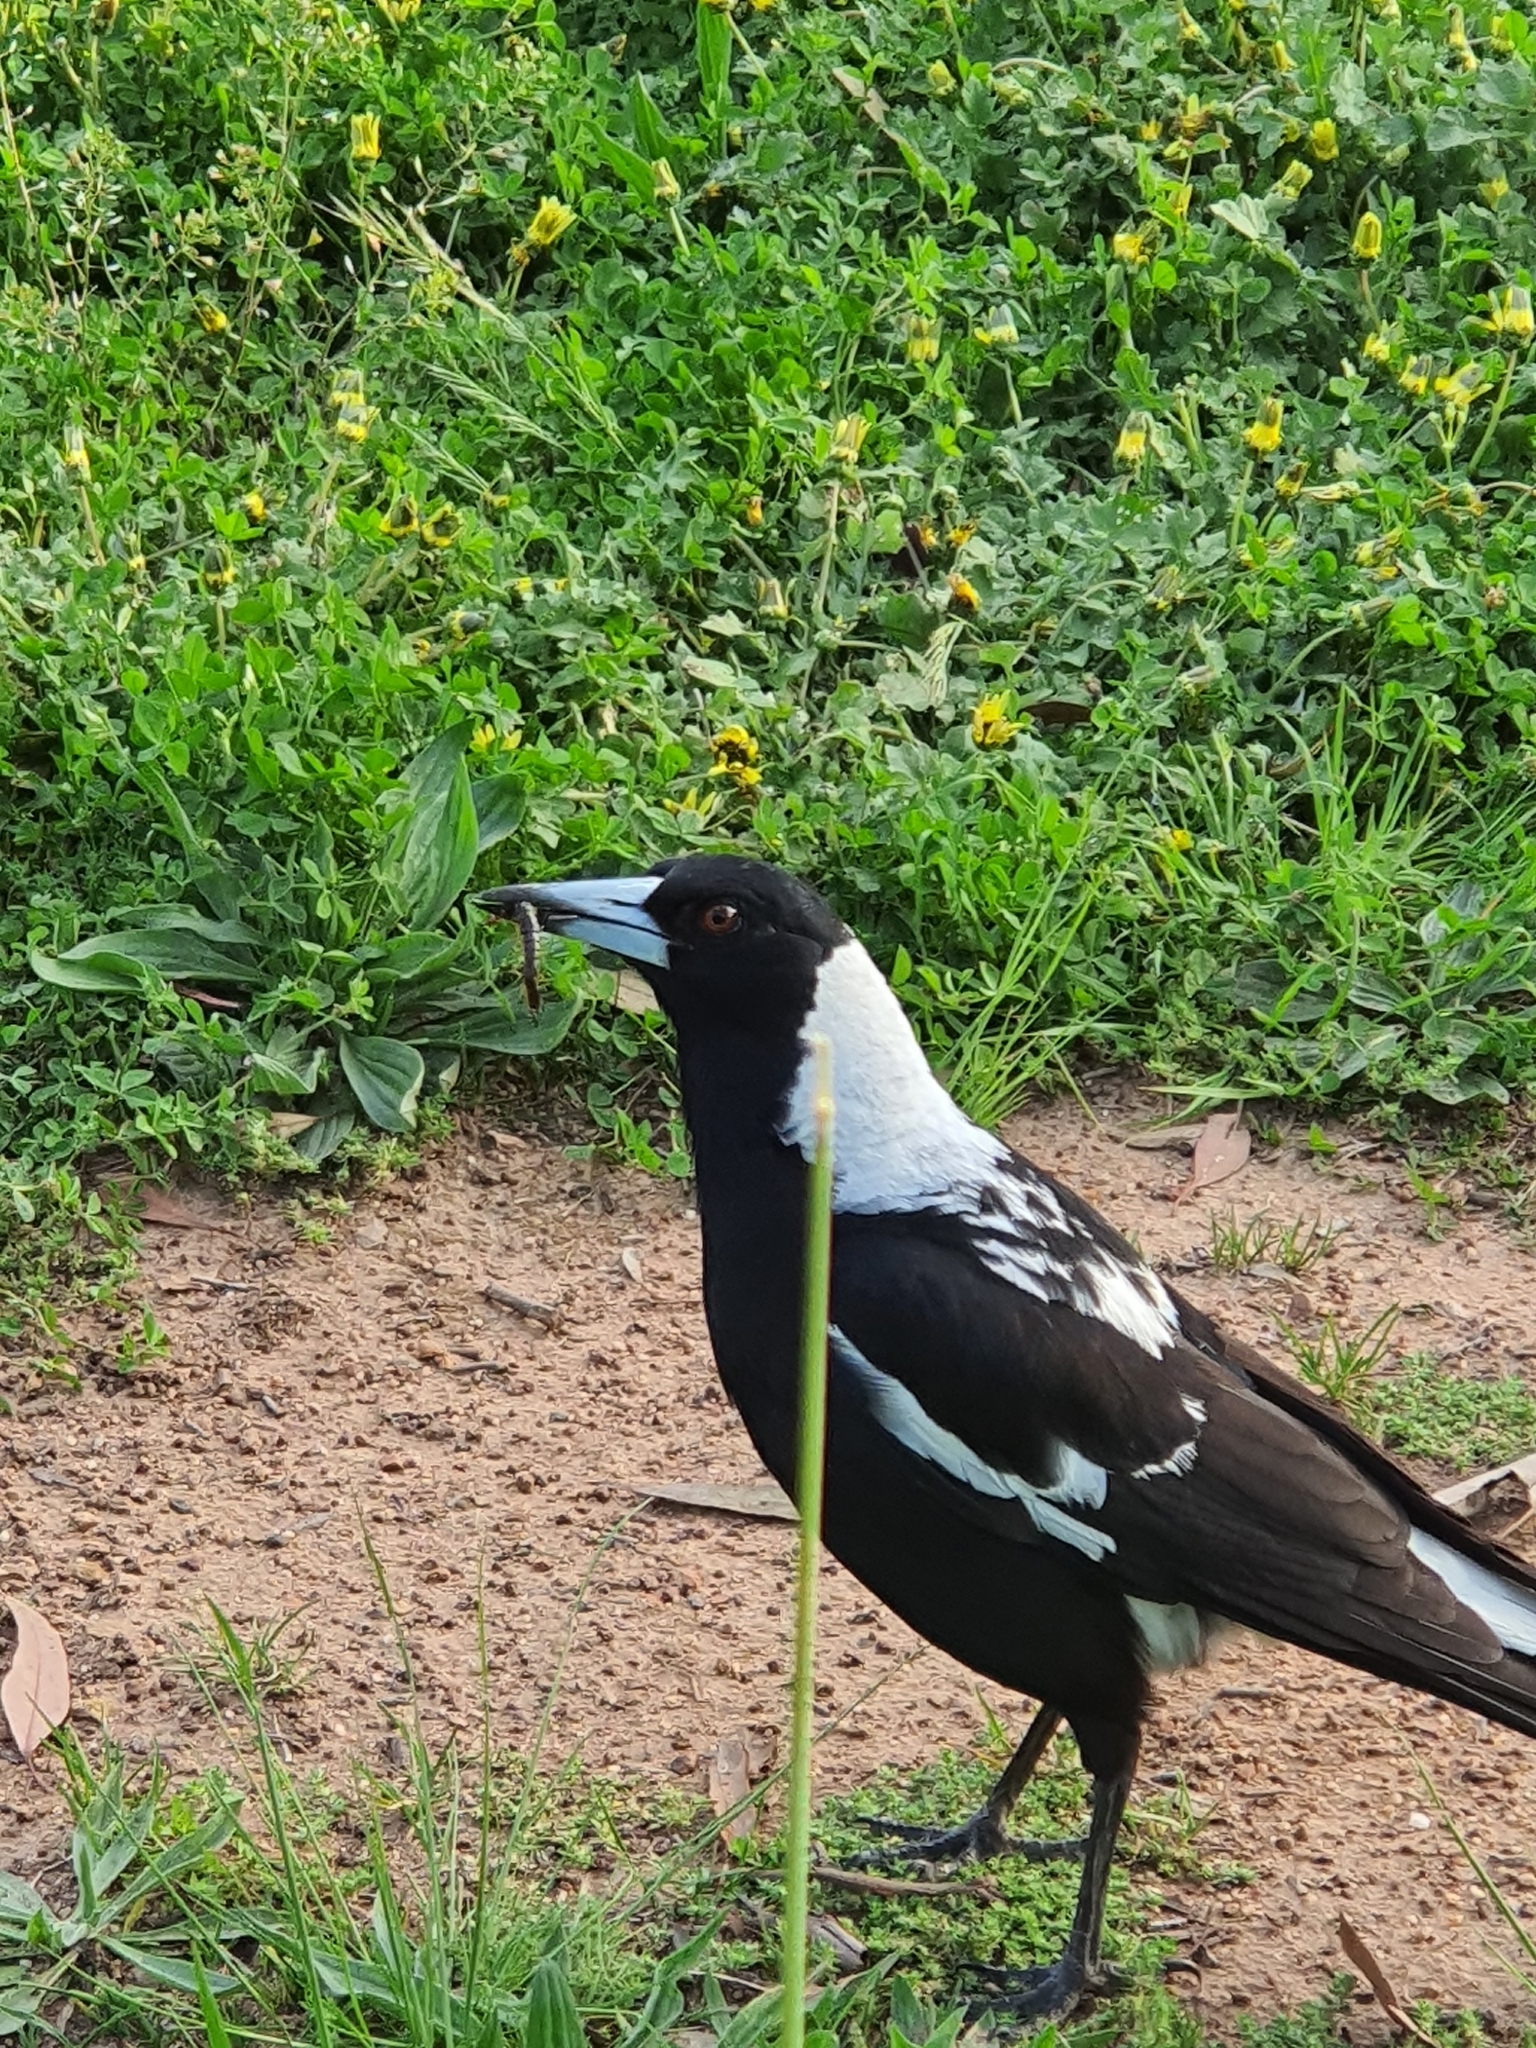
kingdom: Animalia
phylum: Chordata
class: Aves
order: Passeriformes
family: Cracticidae
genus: Gymnorhina
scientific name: Gymnorhina tibicen
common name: Australian magpie
